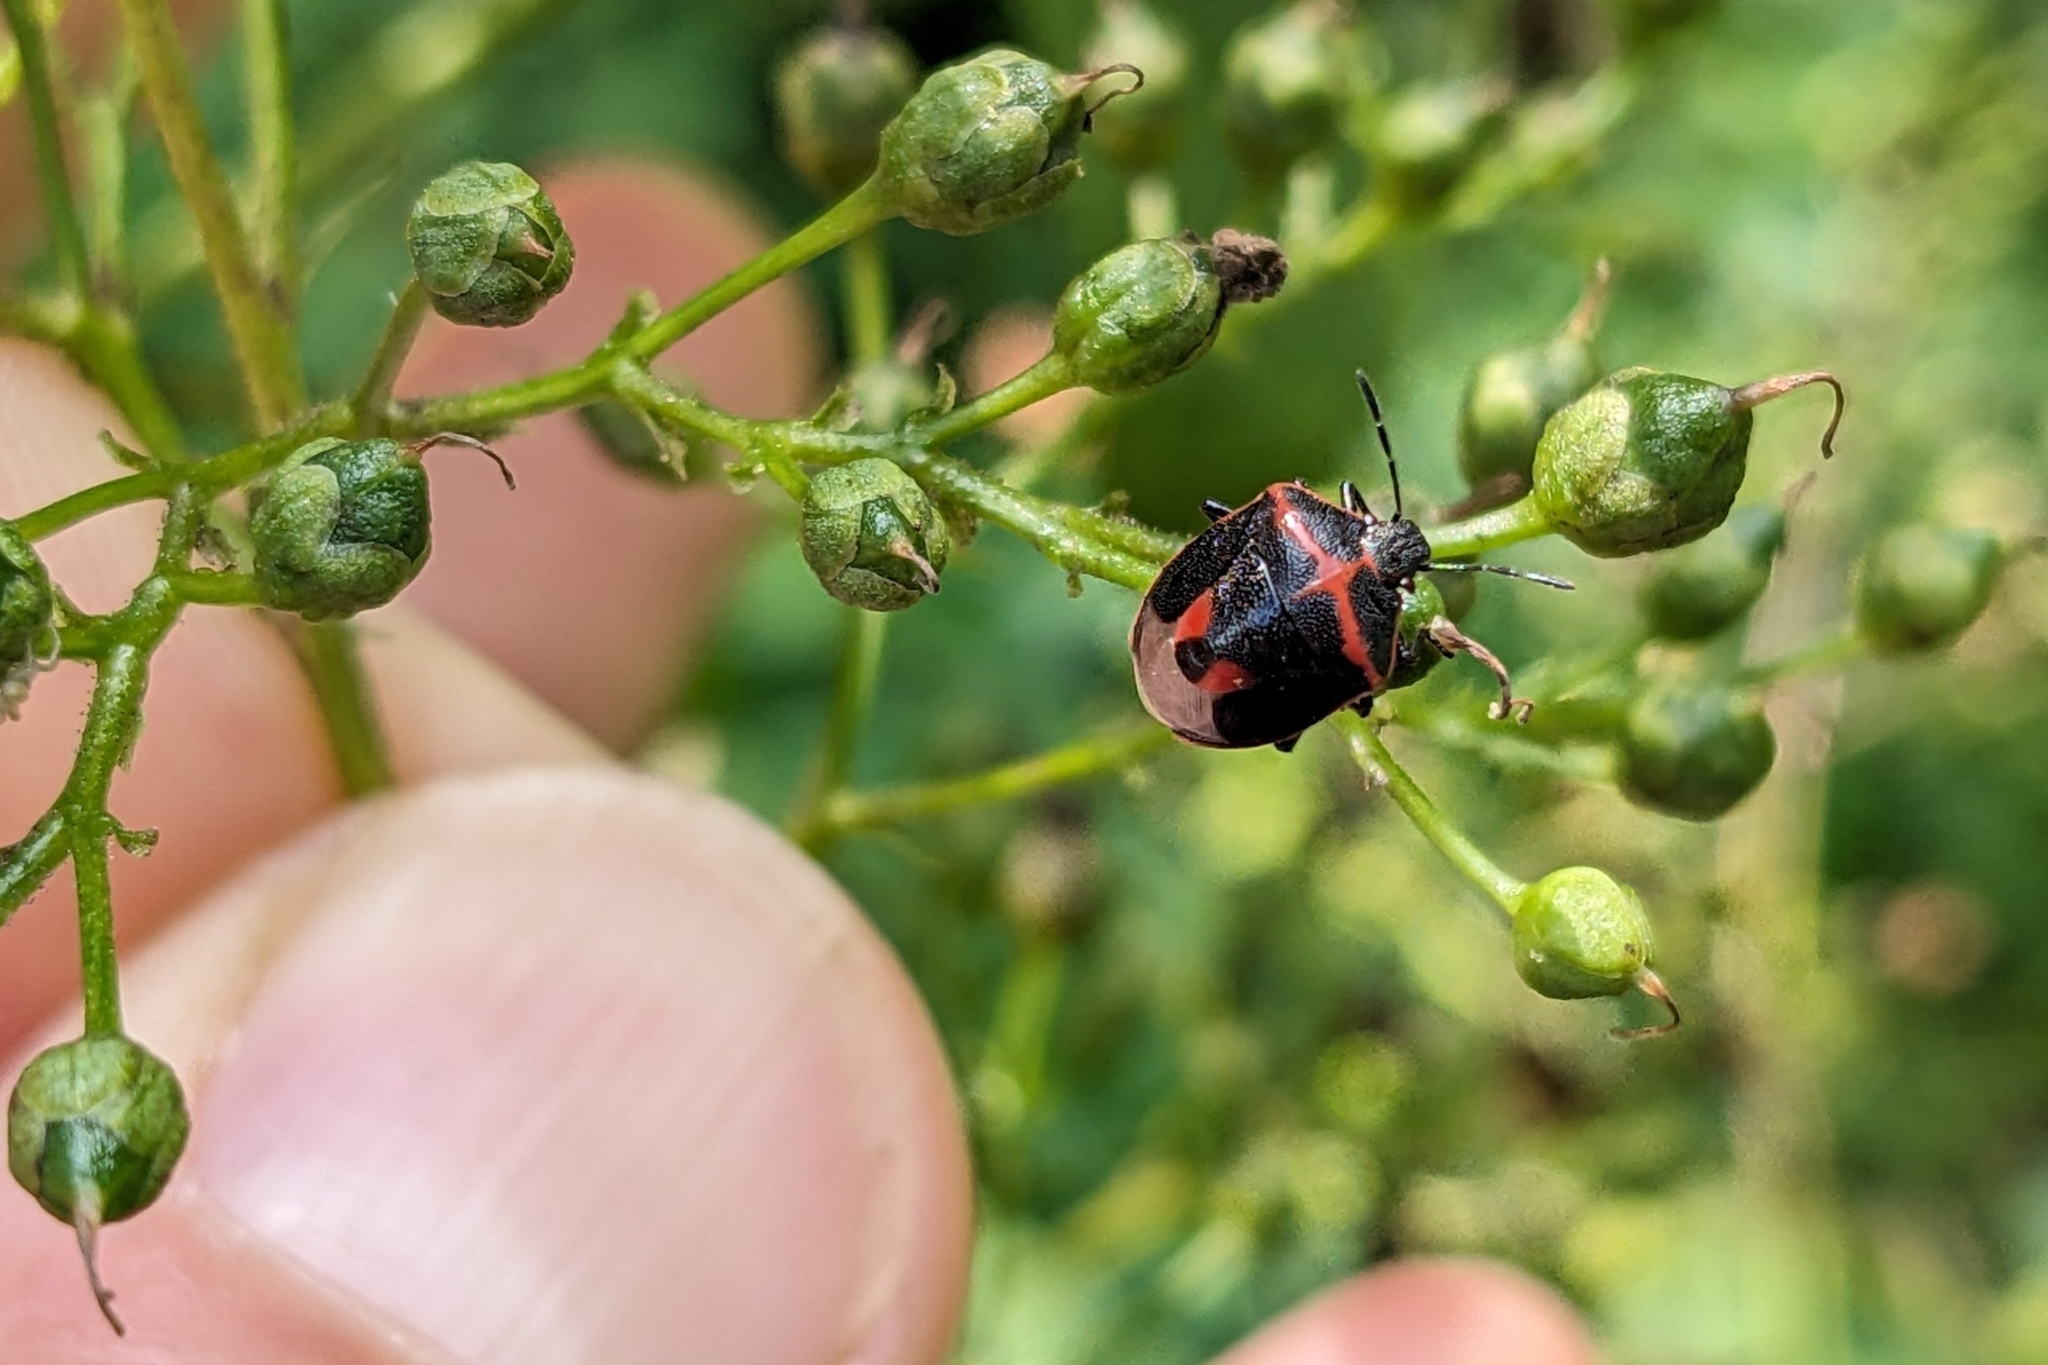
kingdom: Animalia
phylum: Arthropoda
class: Insecta
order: Hemiptera
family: Pentatomidae
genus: Cosmopepla
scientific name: Cosmopepla lintneriana
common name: Twice-stabbed stink bug
